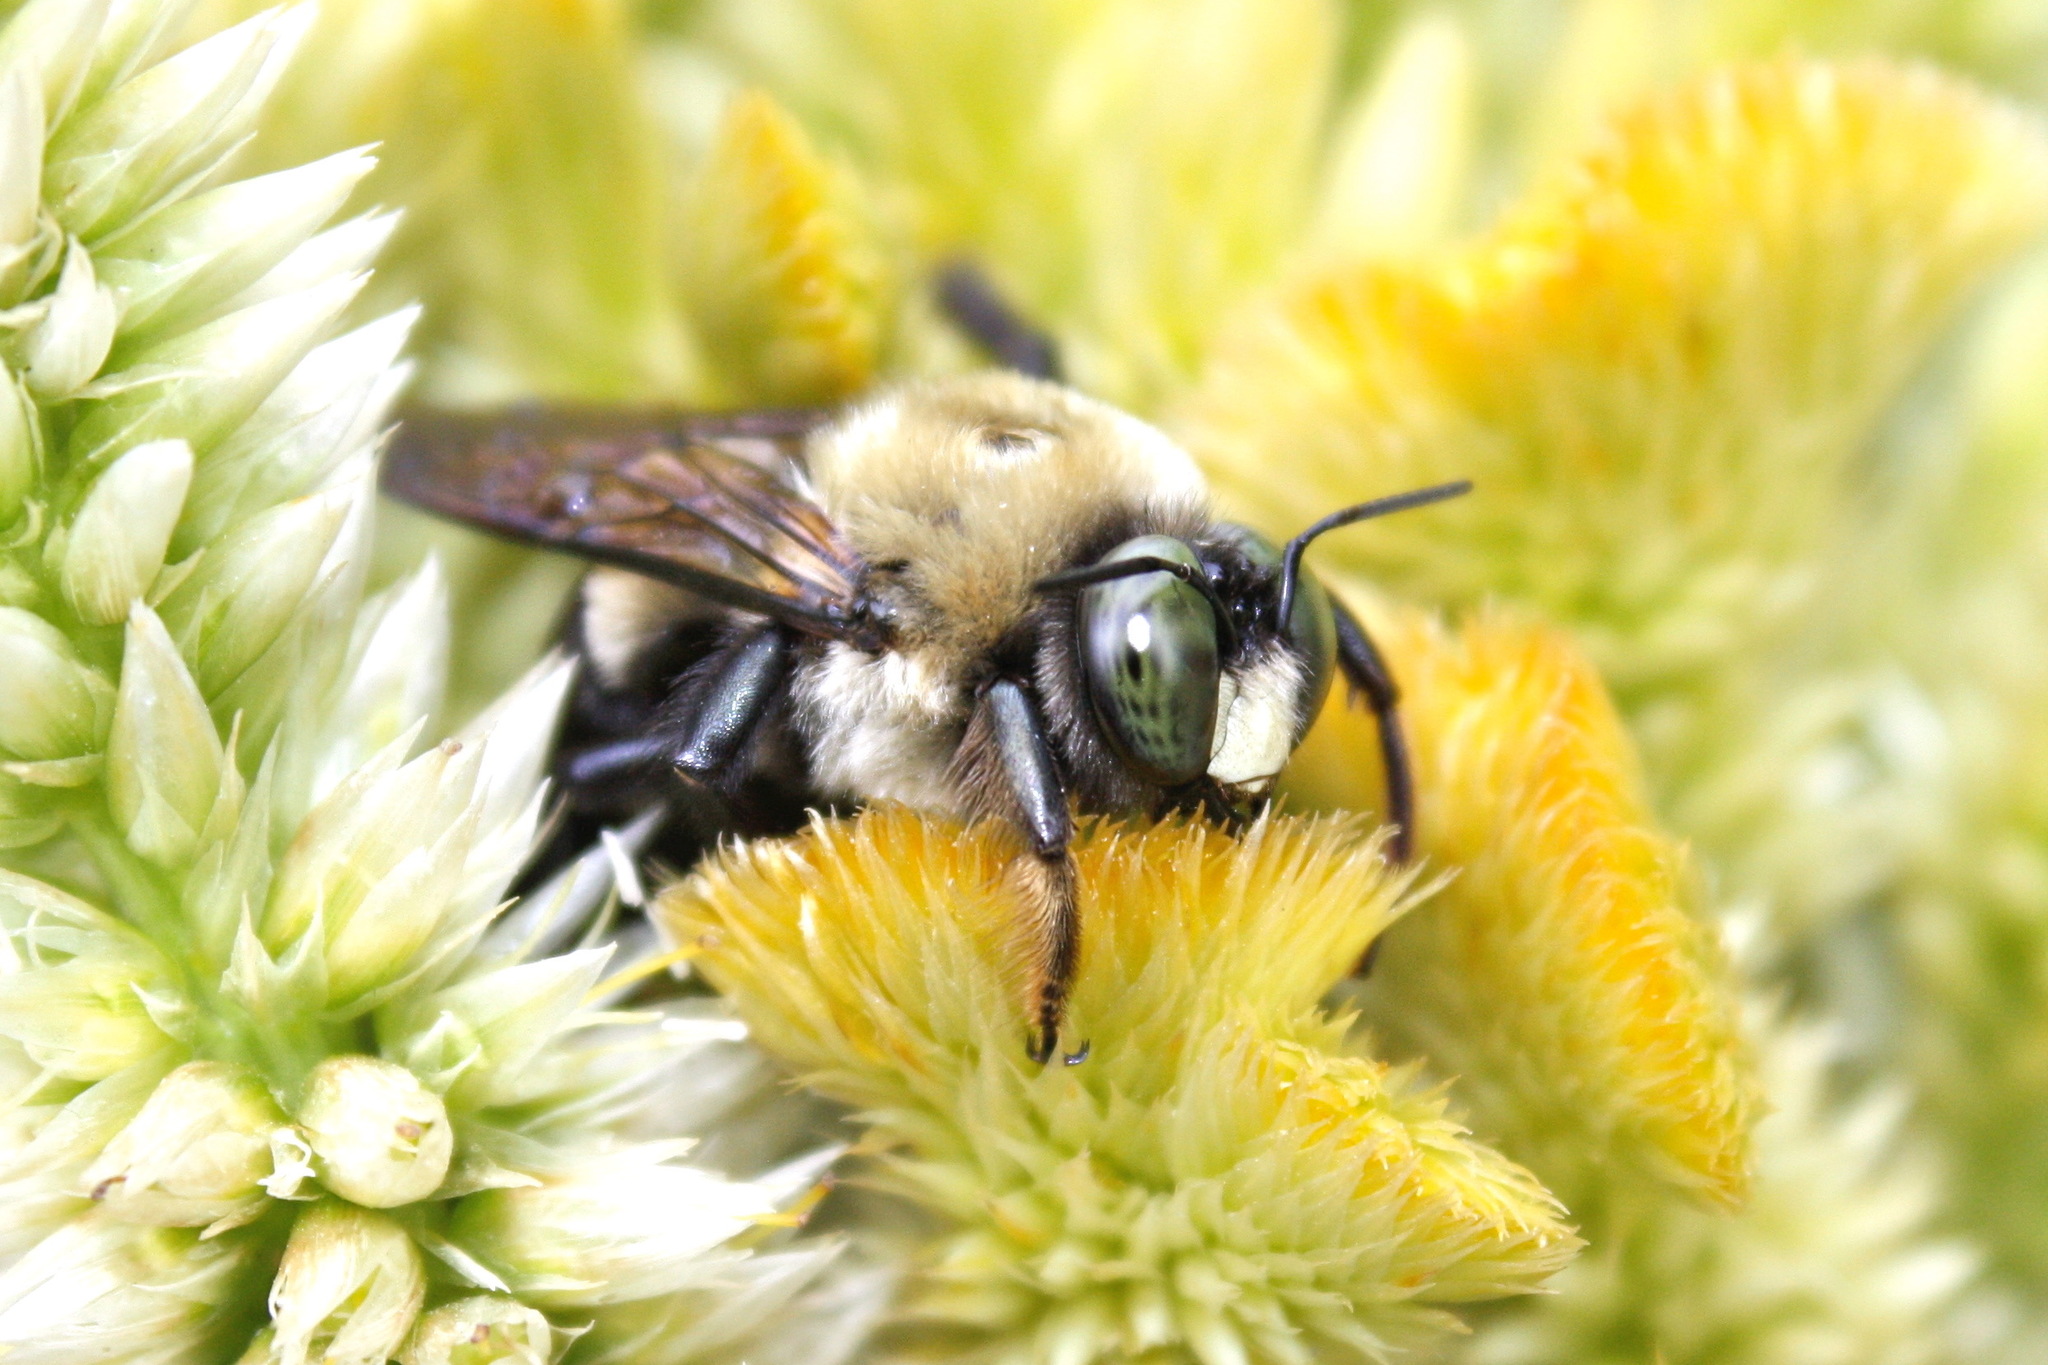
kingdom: Animalia
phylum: Arthropoda
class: Insecta
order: Hymenoptera
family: Apidae
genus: Xylocopa
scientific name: Xylocopa virginica
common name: Carpenter bee
